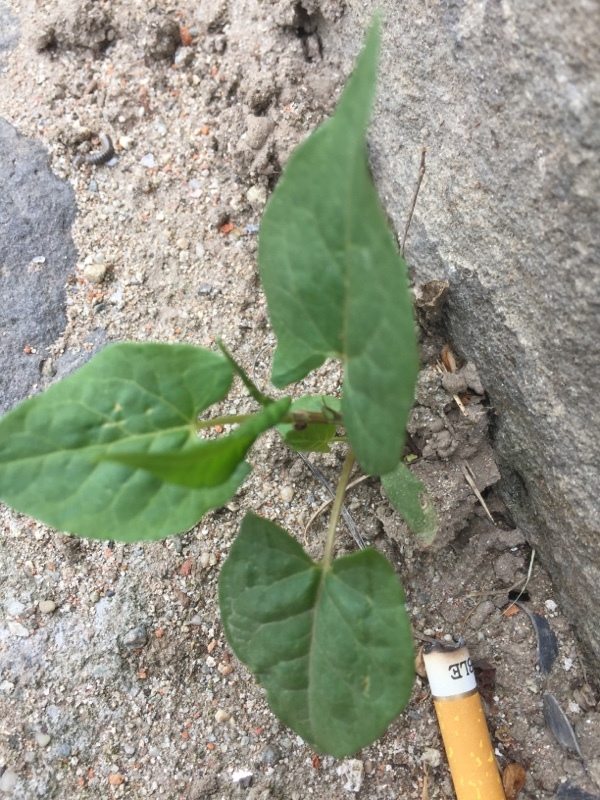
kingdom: Plantae
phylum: Tracheophyta
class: Magnoliopsida
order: Caryophyllales
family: Polygonaceae
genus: Fallopia
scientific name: Fallopia convolvulus
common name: Black bindweed
